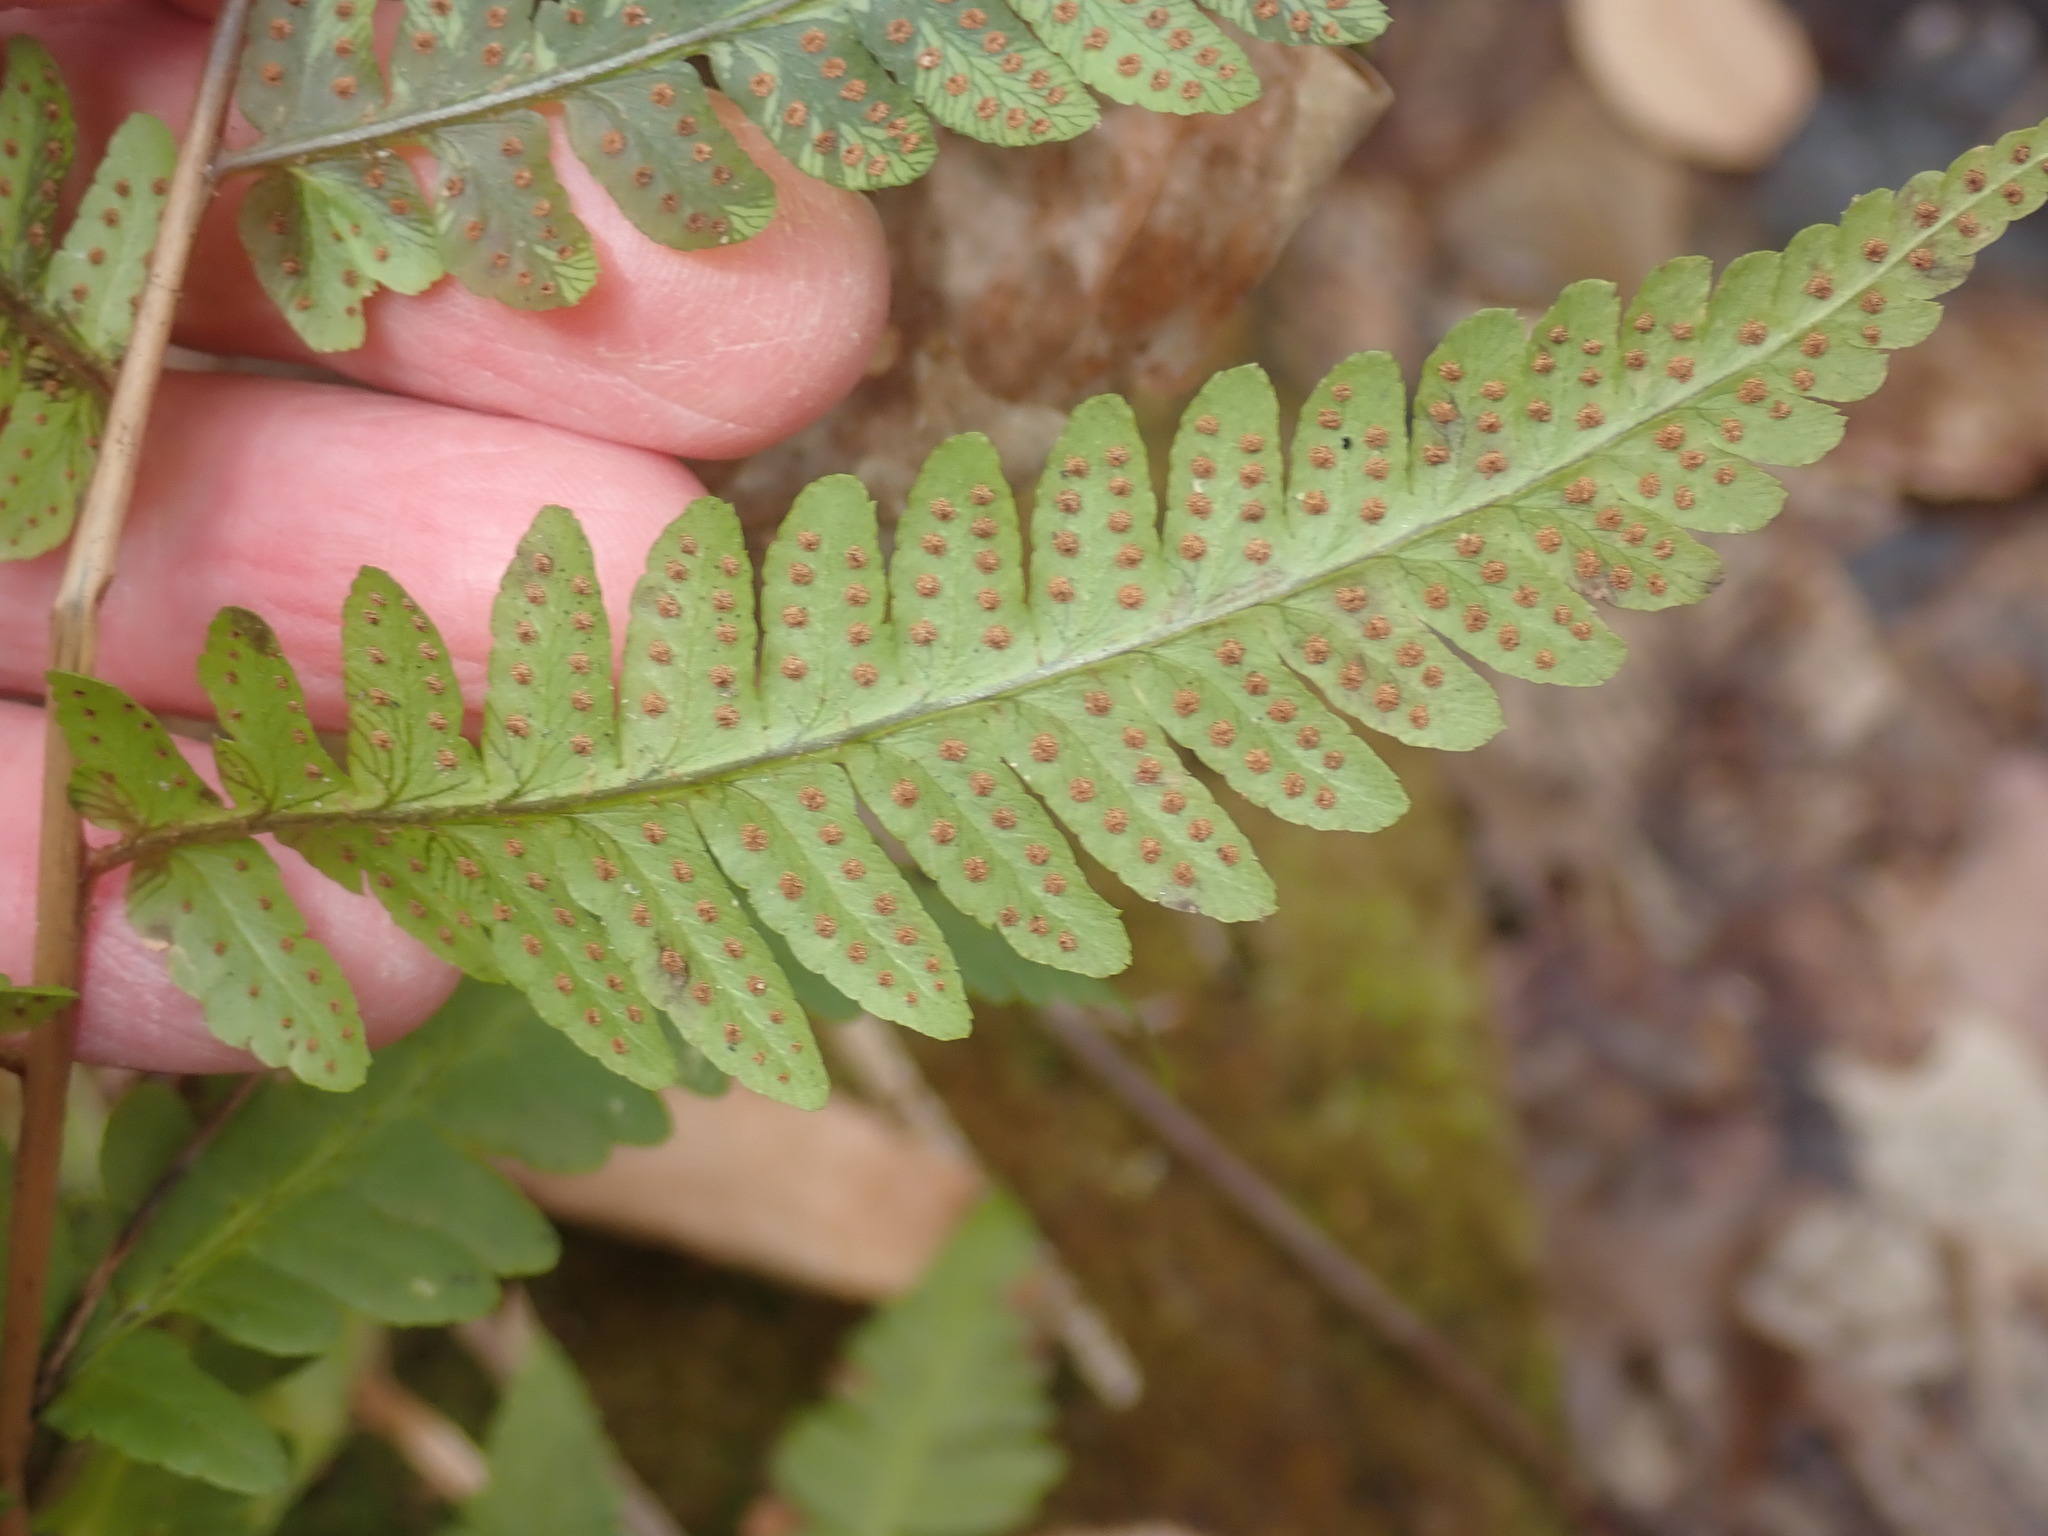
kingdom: Plantae
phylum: Tracheophyta
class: Polypodiopsida
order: Polypodiales
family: Dryopteridaceae
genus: Dryopteris
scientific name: Dryopteris cristata
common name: Crested wood fern
